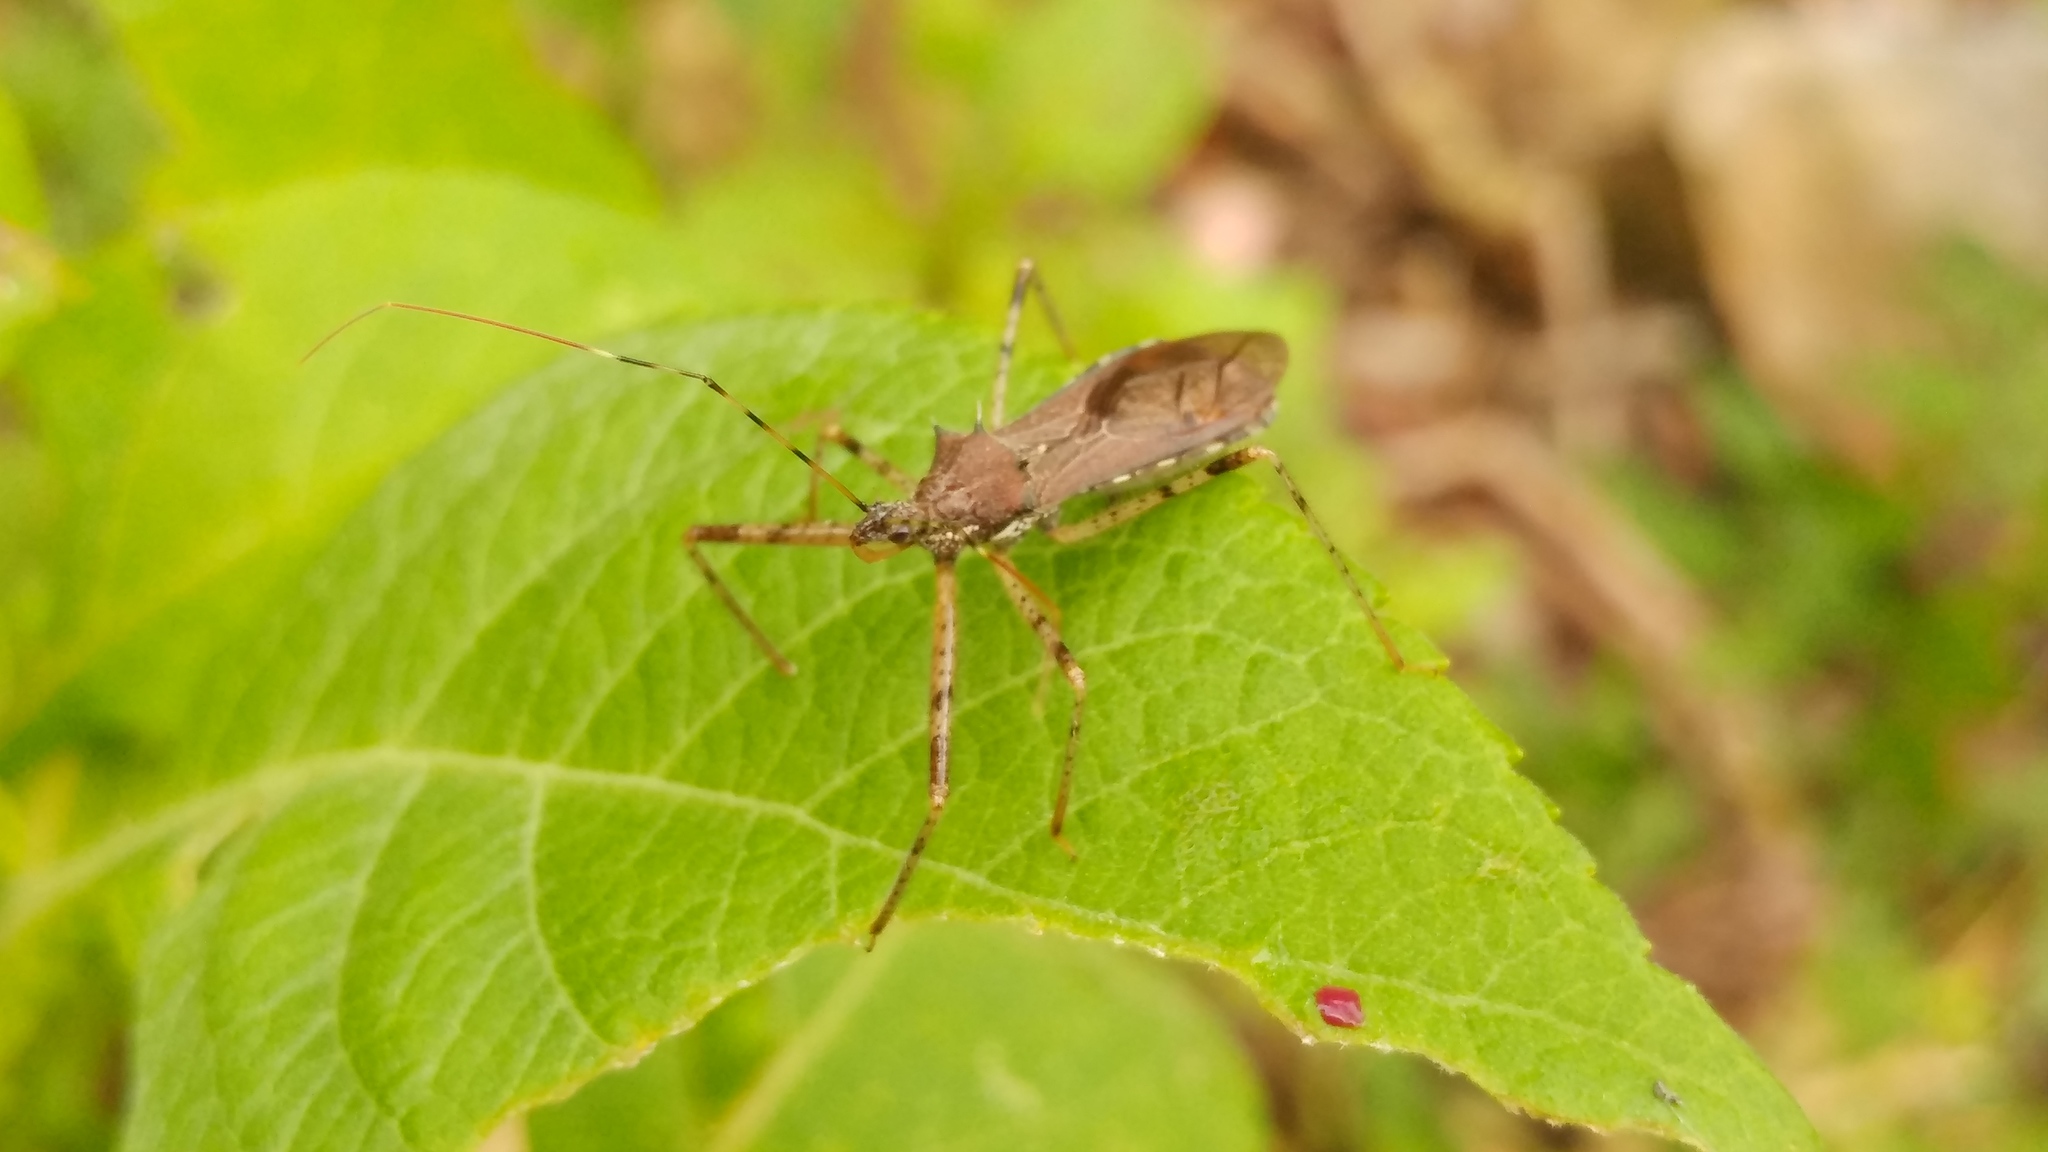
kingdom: Animalia
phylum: Arthropoda
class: Insecta
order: Hemiptera
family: Reduviidae
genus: Rocconota
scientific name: Rocconota annulicornis
